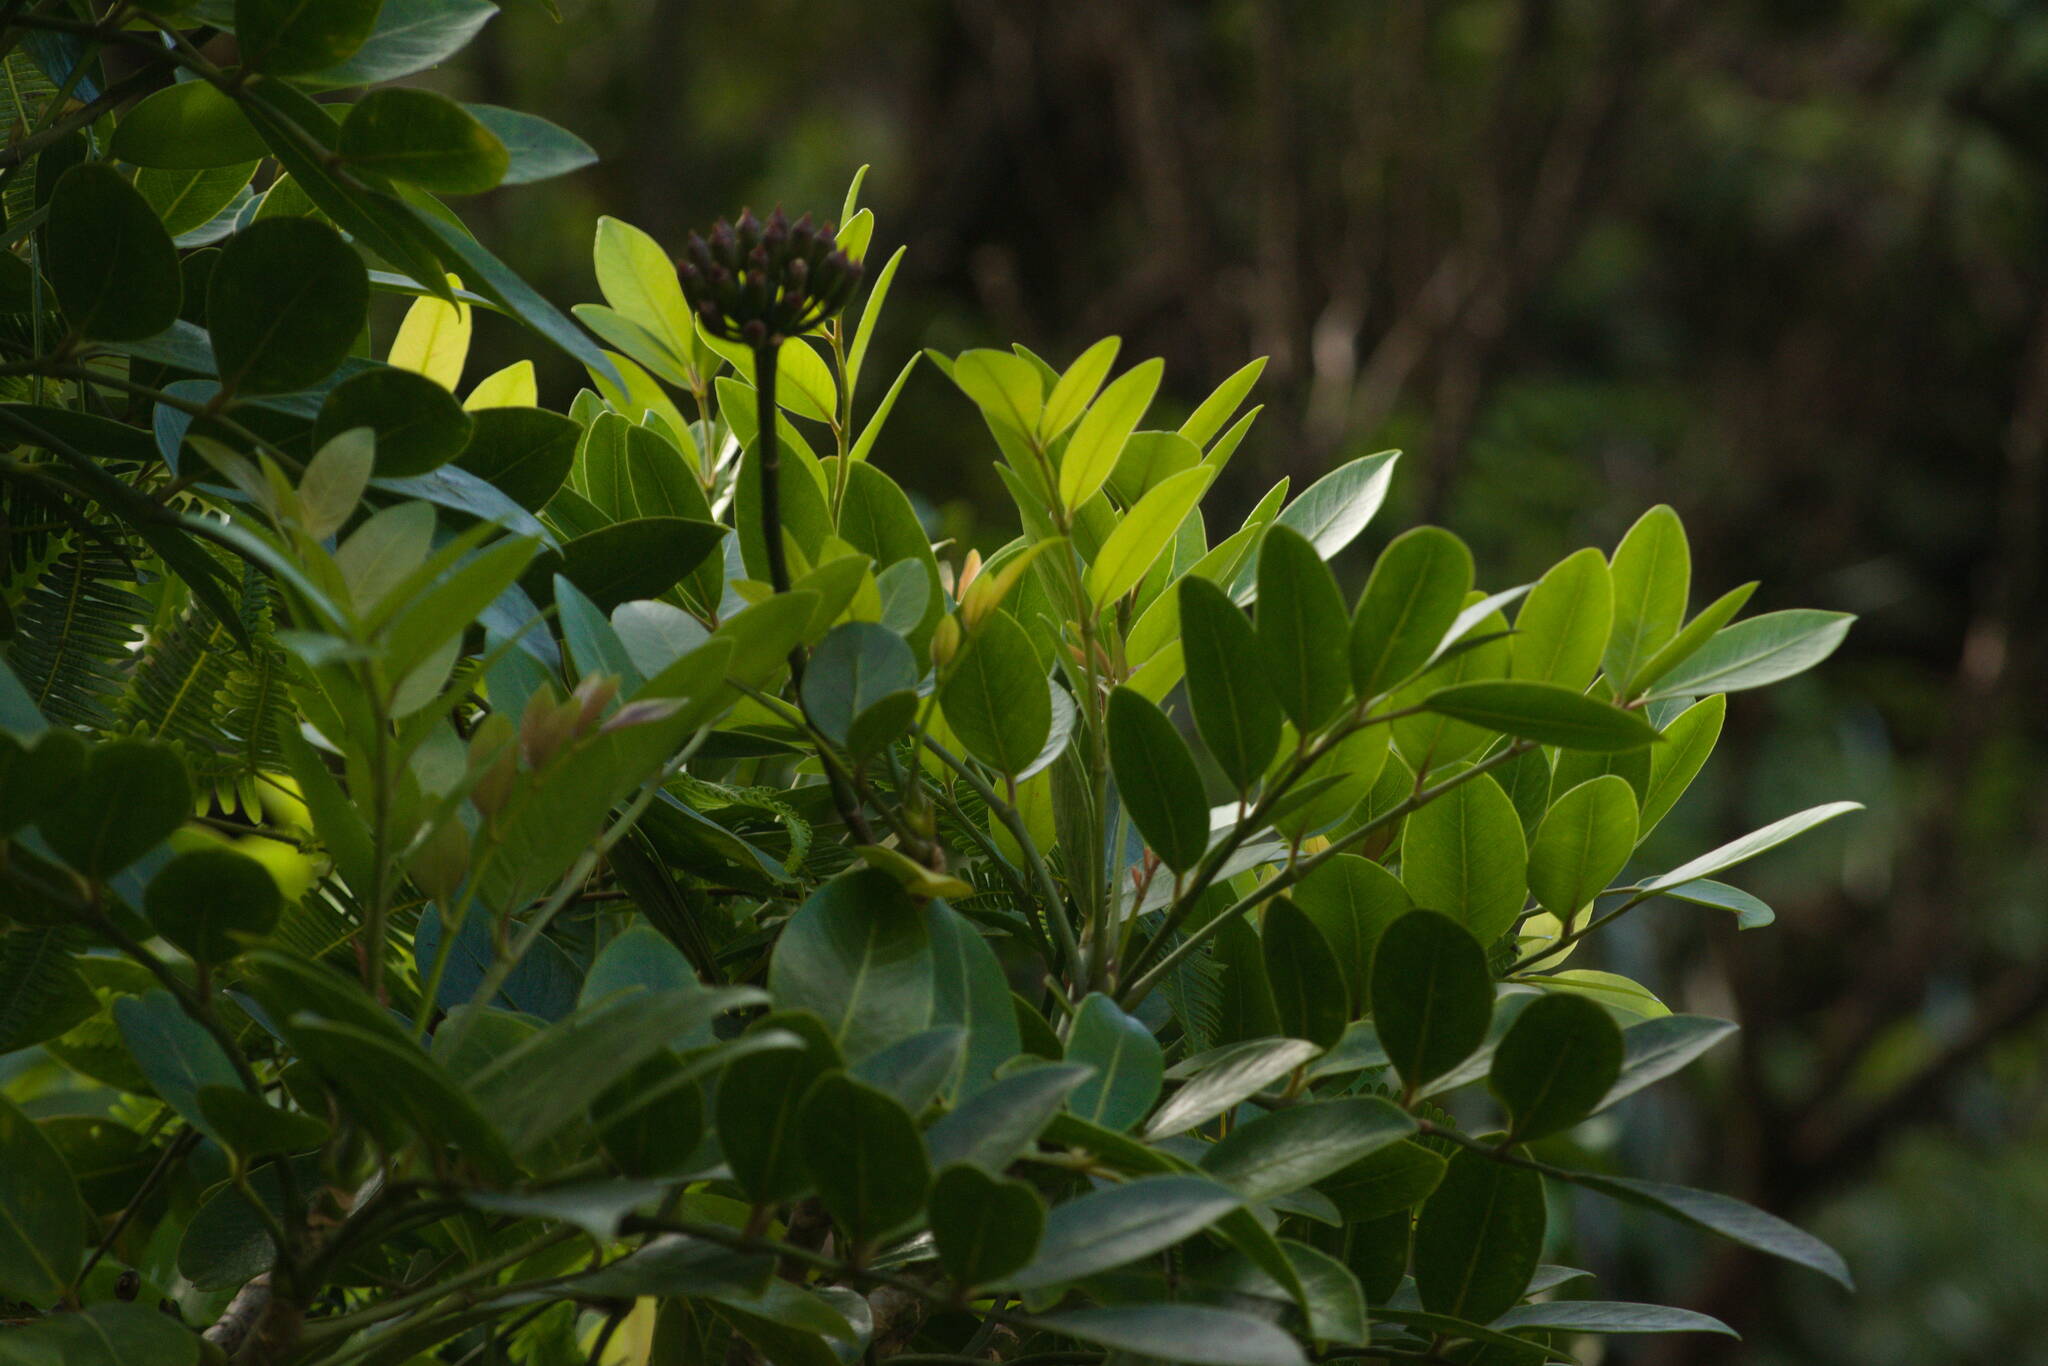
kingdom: Plantae
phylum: Tracheophyta
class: Magnoliopsida
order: Apiales
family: Araliaceae
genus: Polyscias
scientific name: Polyscias oahuensis
